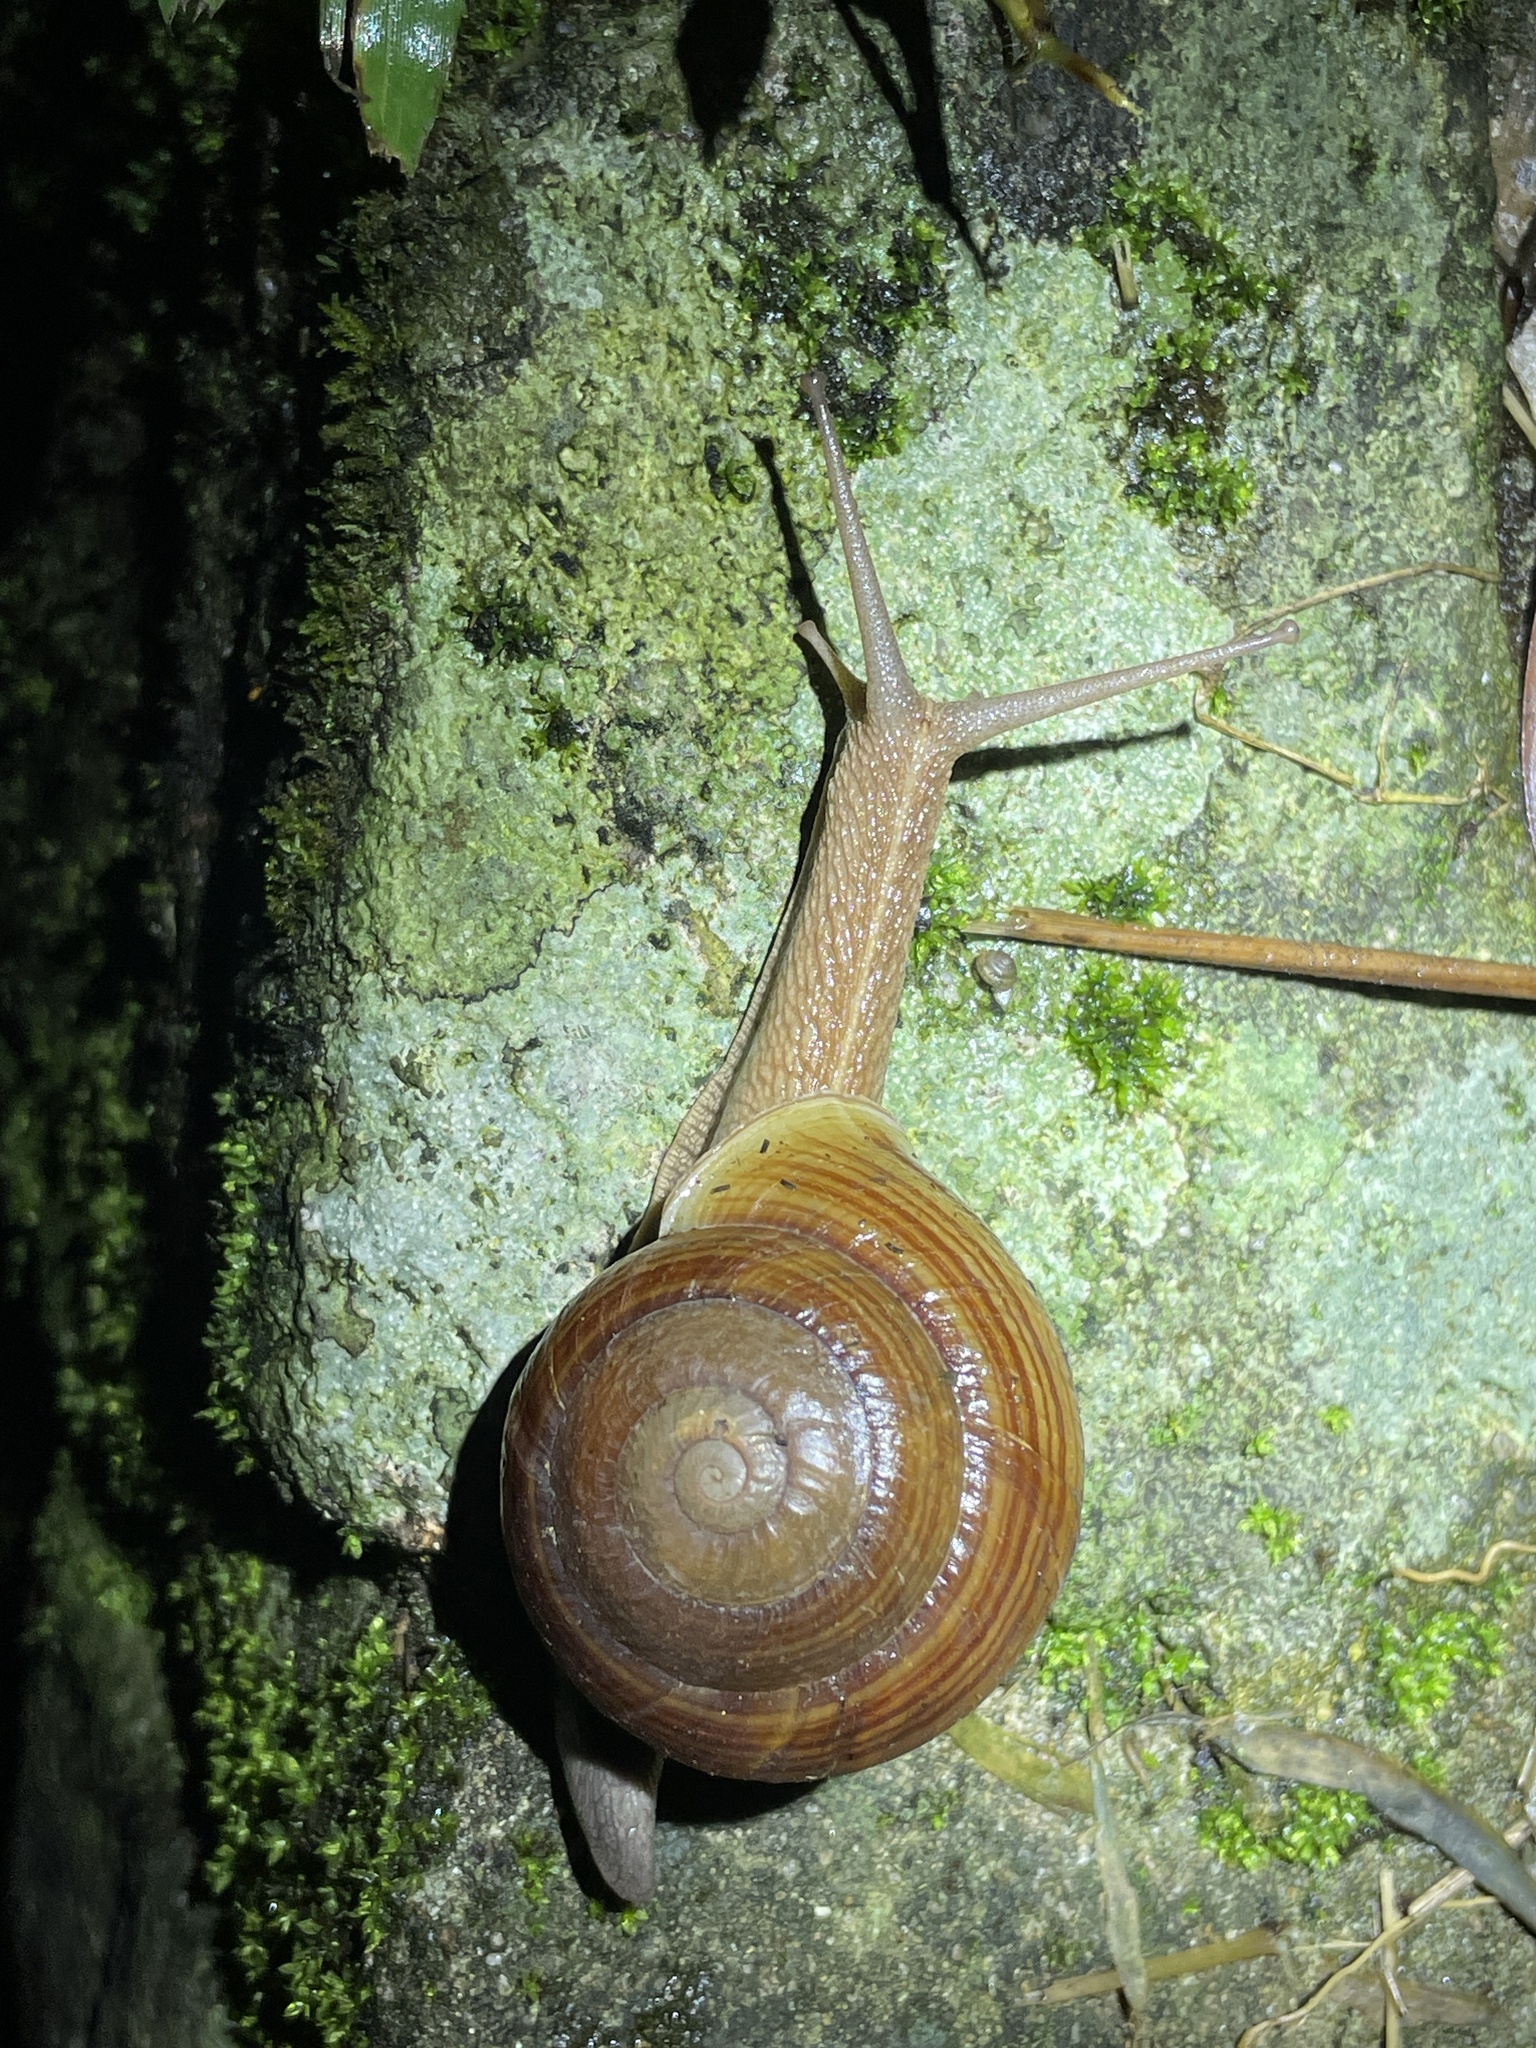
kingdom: Animalia
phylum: Mollusca
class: Gastropoda
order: Stylommatophora
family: Camaenidae
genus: Camaena
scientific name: Camaena cicatricosa
